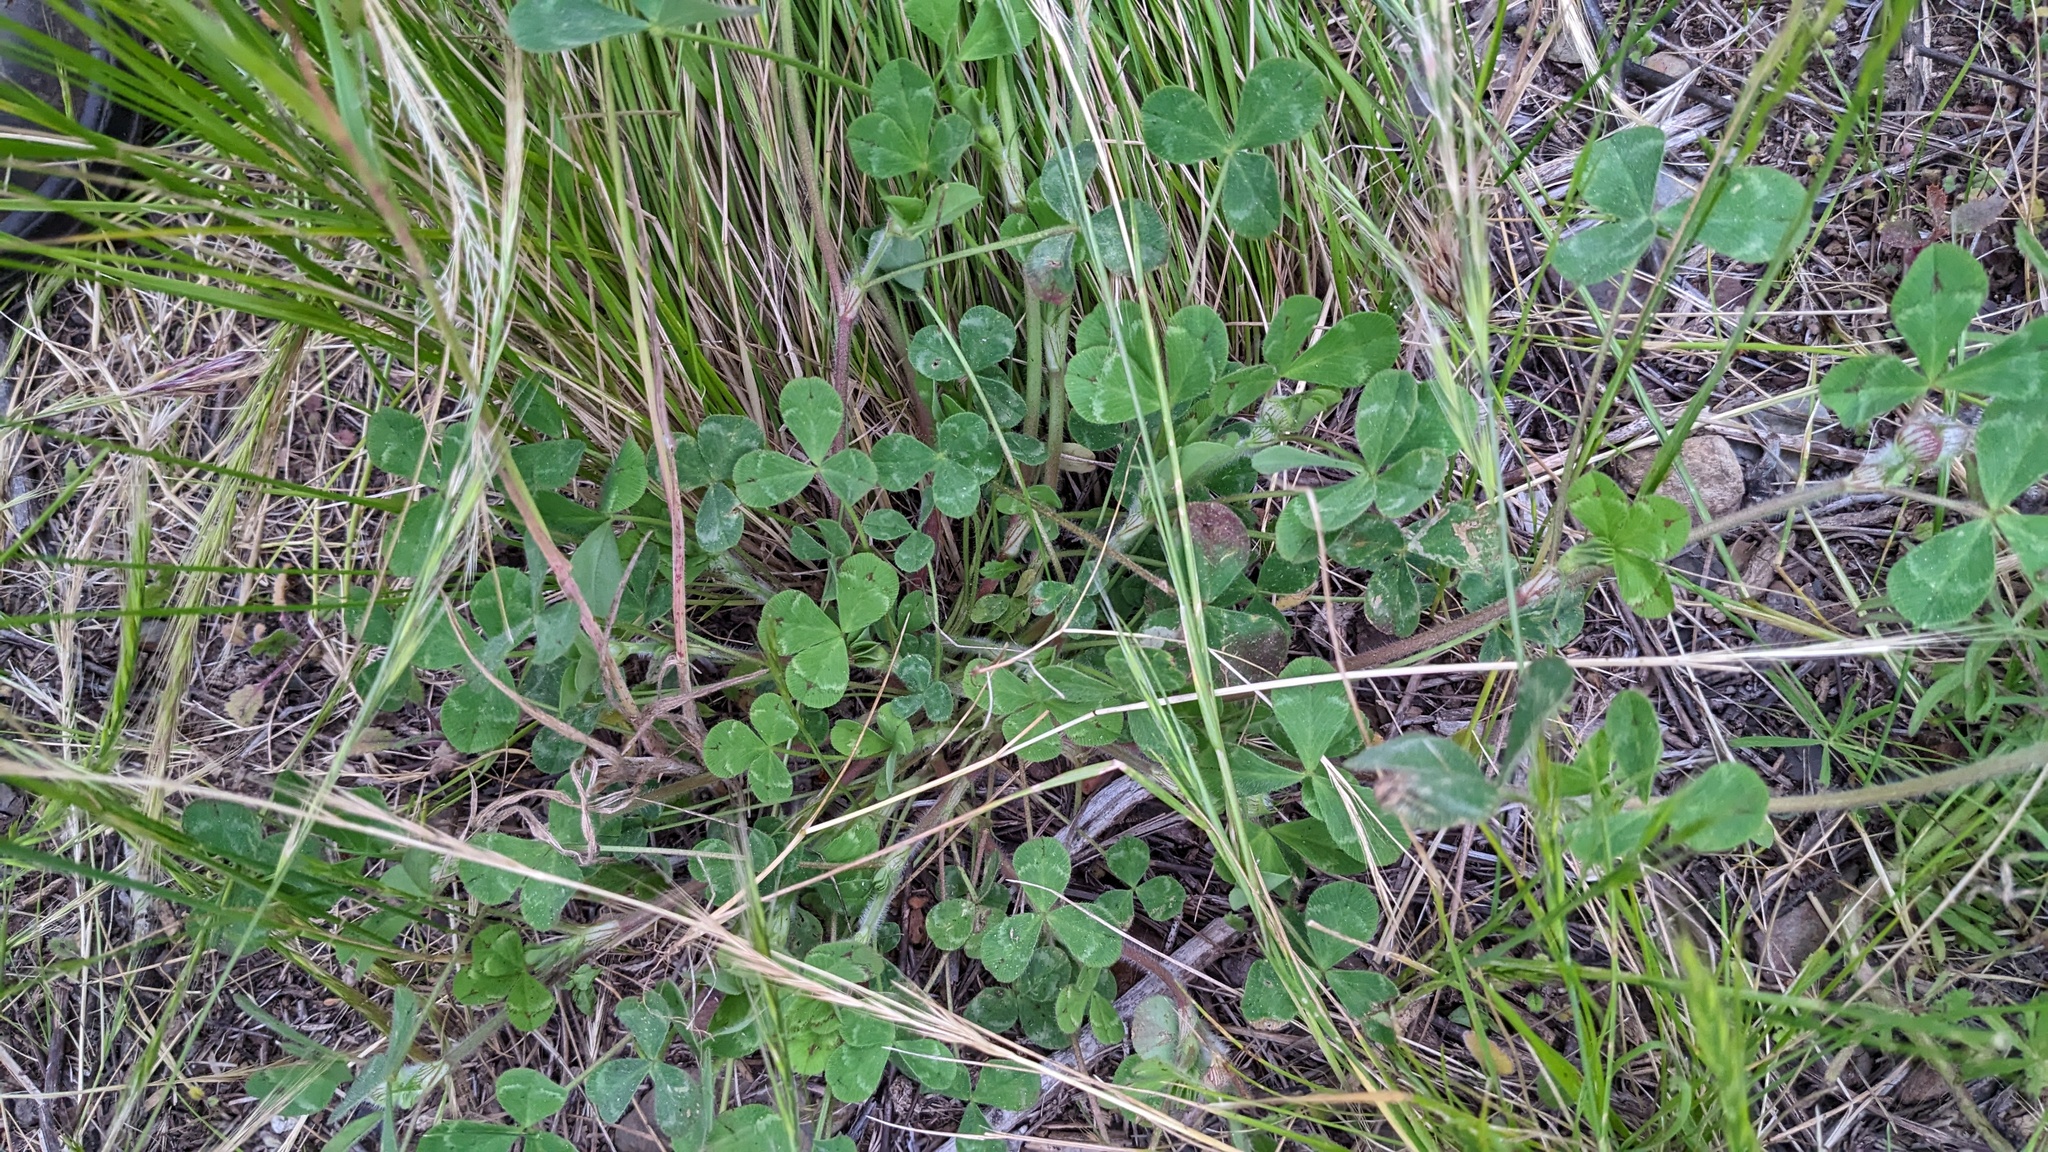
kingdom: Plantae
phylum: Tracheophyta
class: Magnoliopsida
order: Fabales
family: Fabaceae
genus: Trifolium
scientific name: Trifolium hirtum
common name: Rose clover
